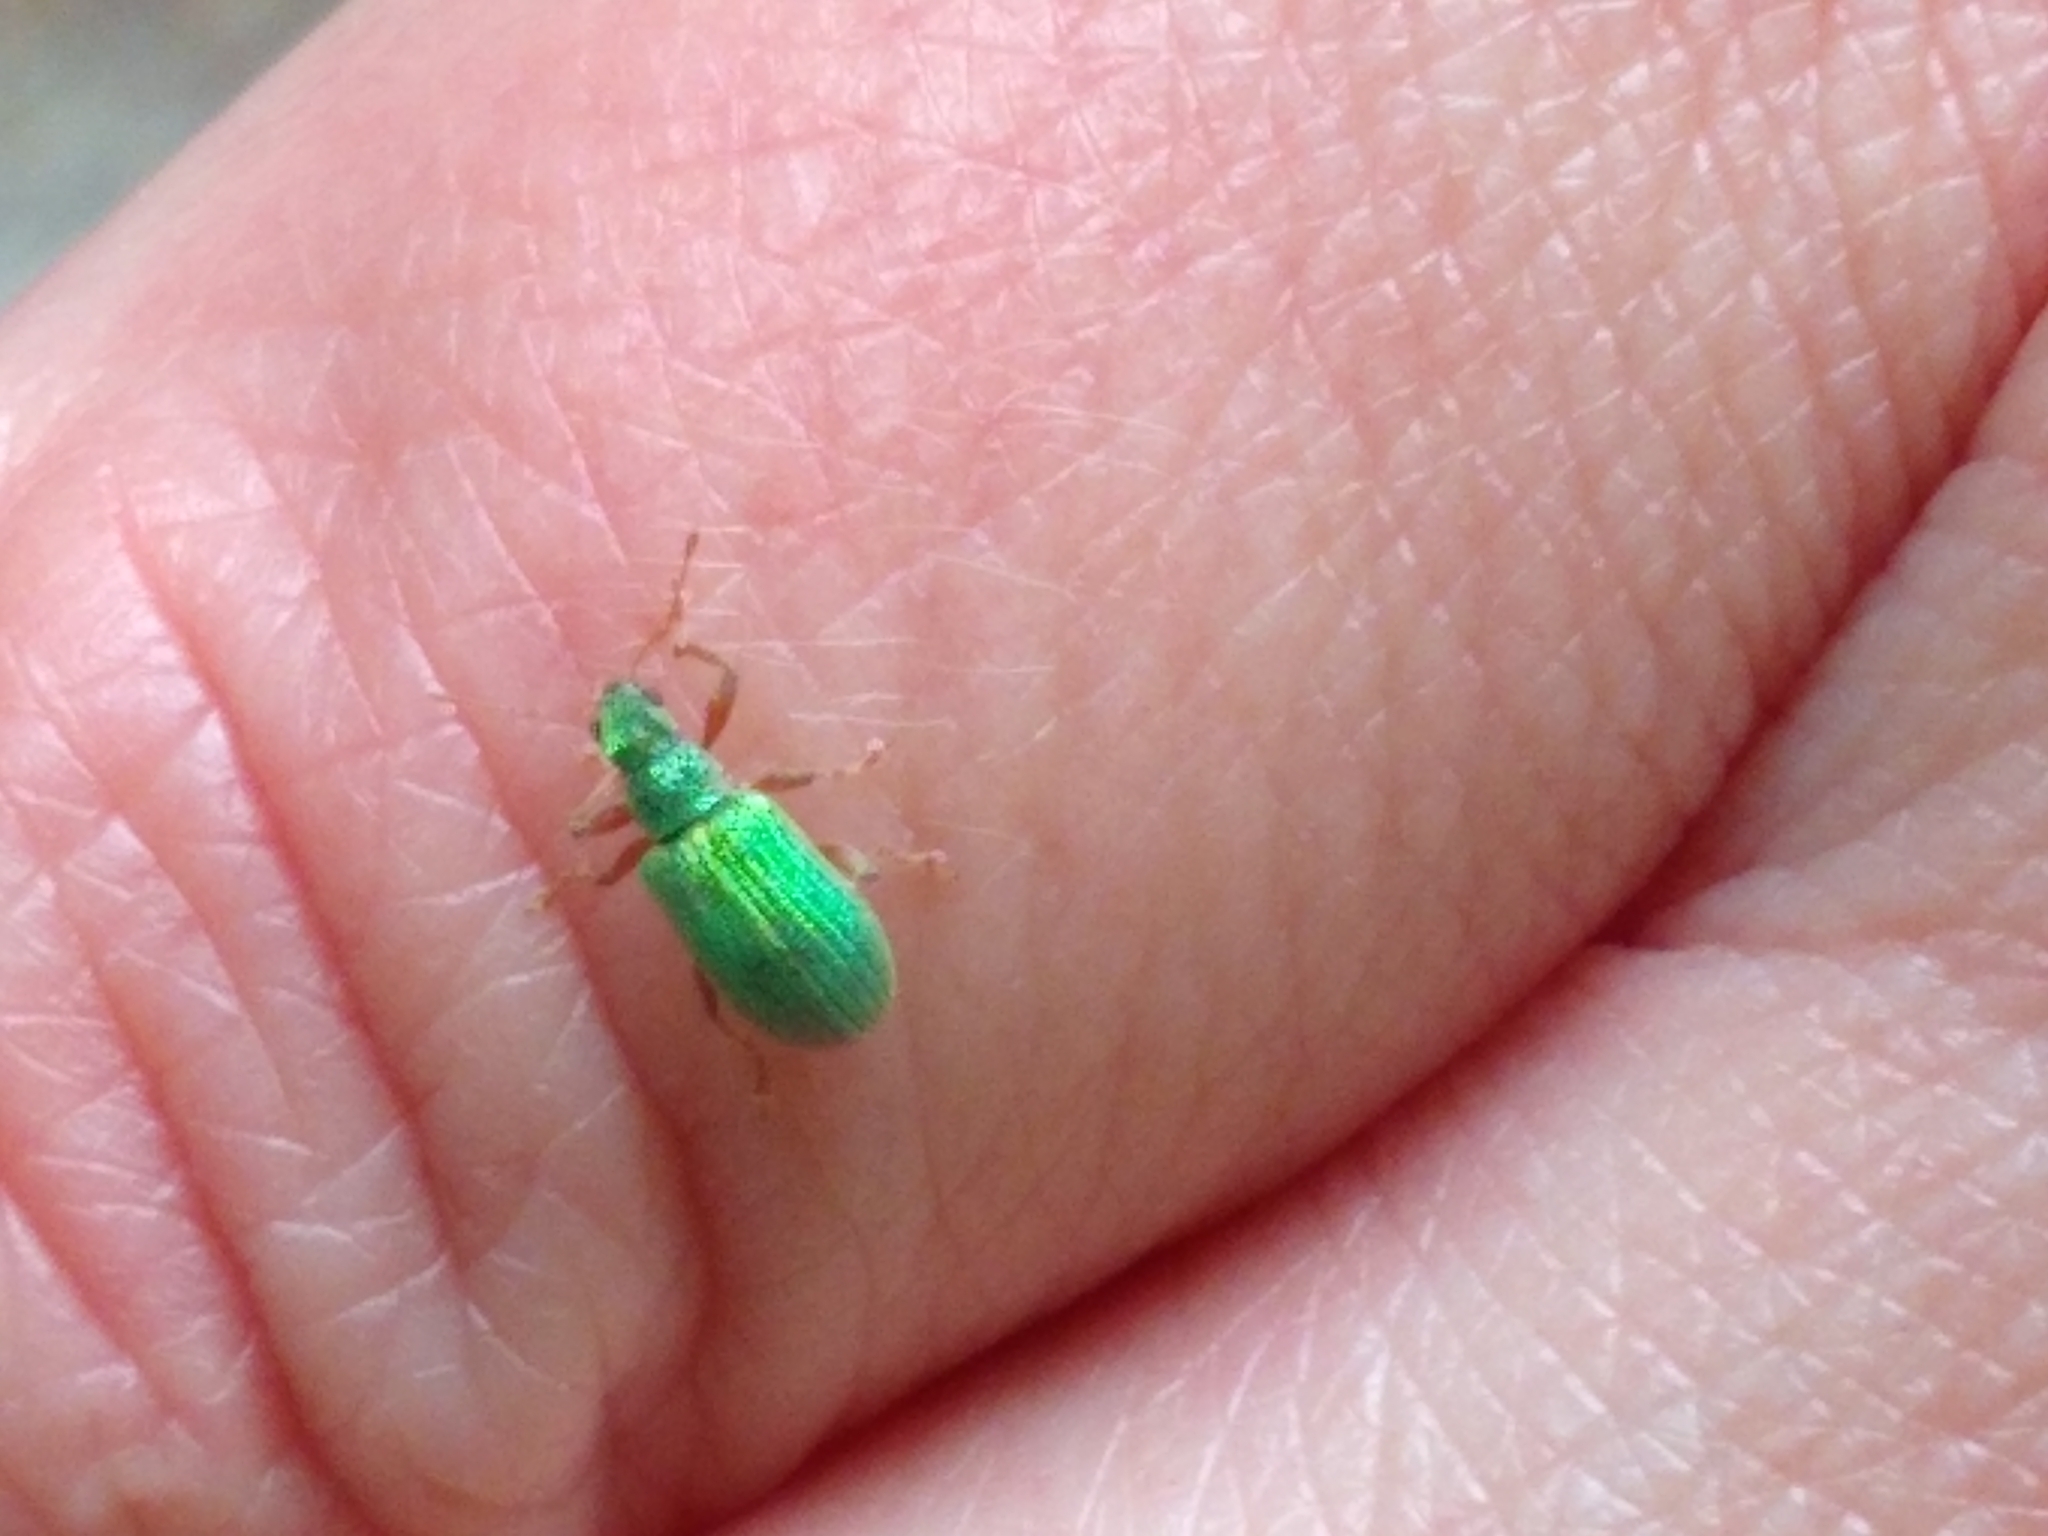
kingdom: Animalia
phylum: Arthropoda
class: Insecta
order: Coleoptera
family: Curculionidae
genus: Polydrusus
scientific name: Polydrusus pterygomalis
